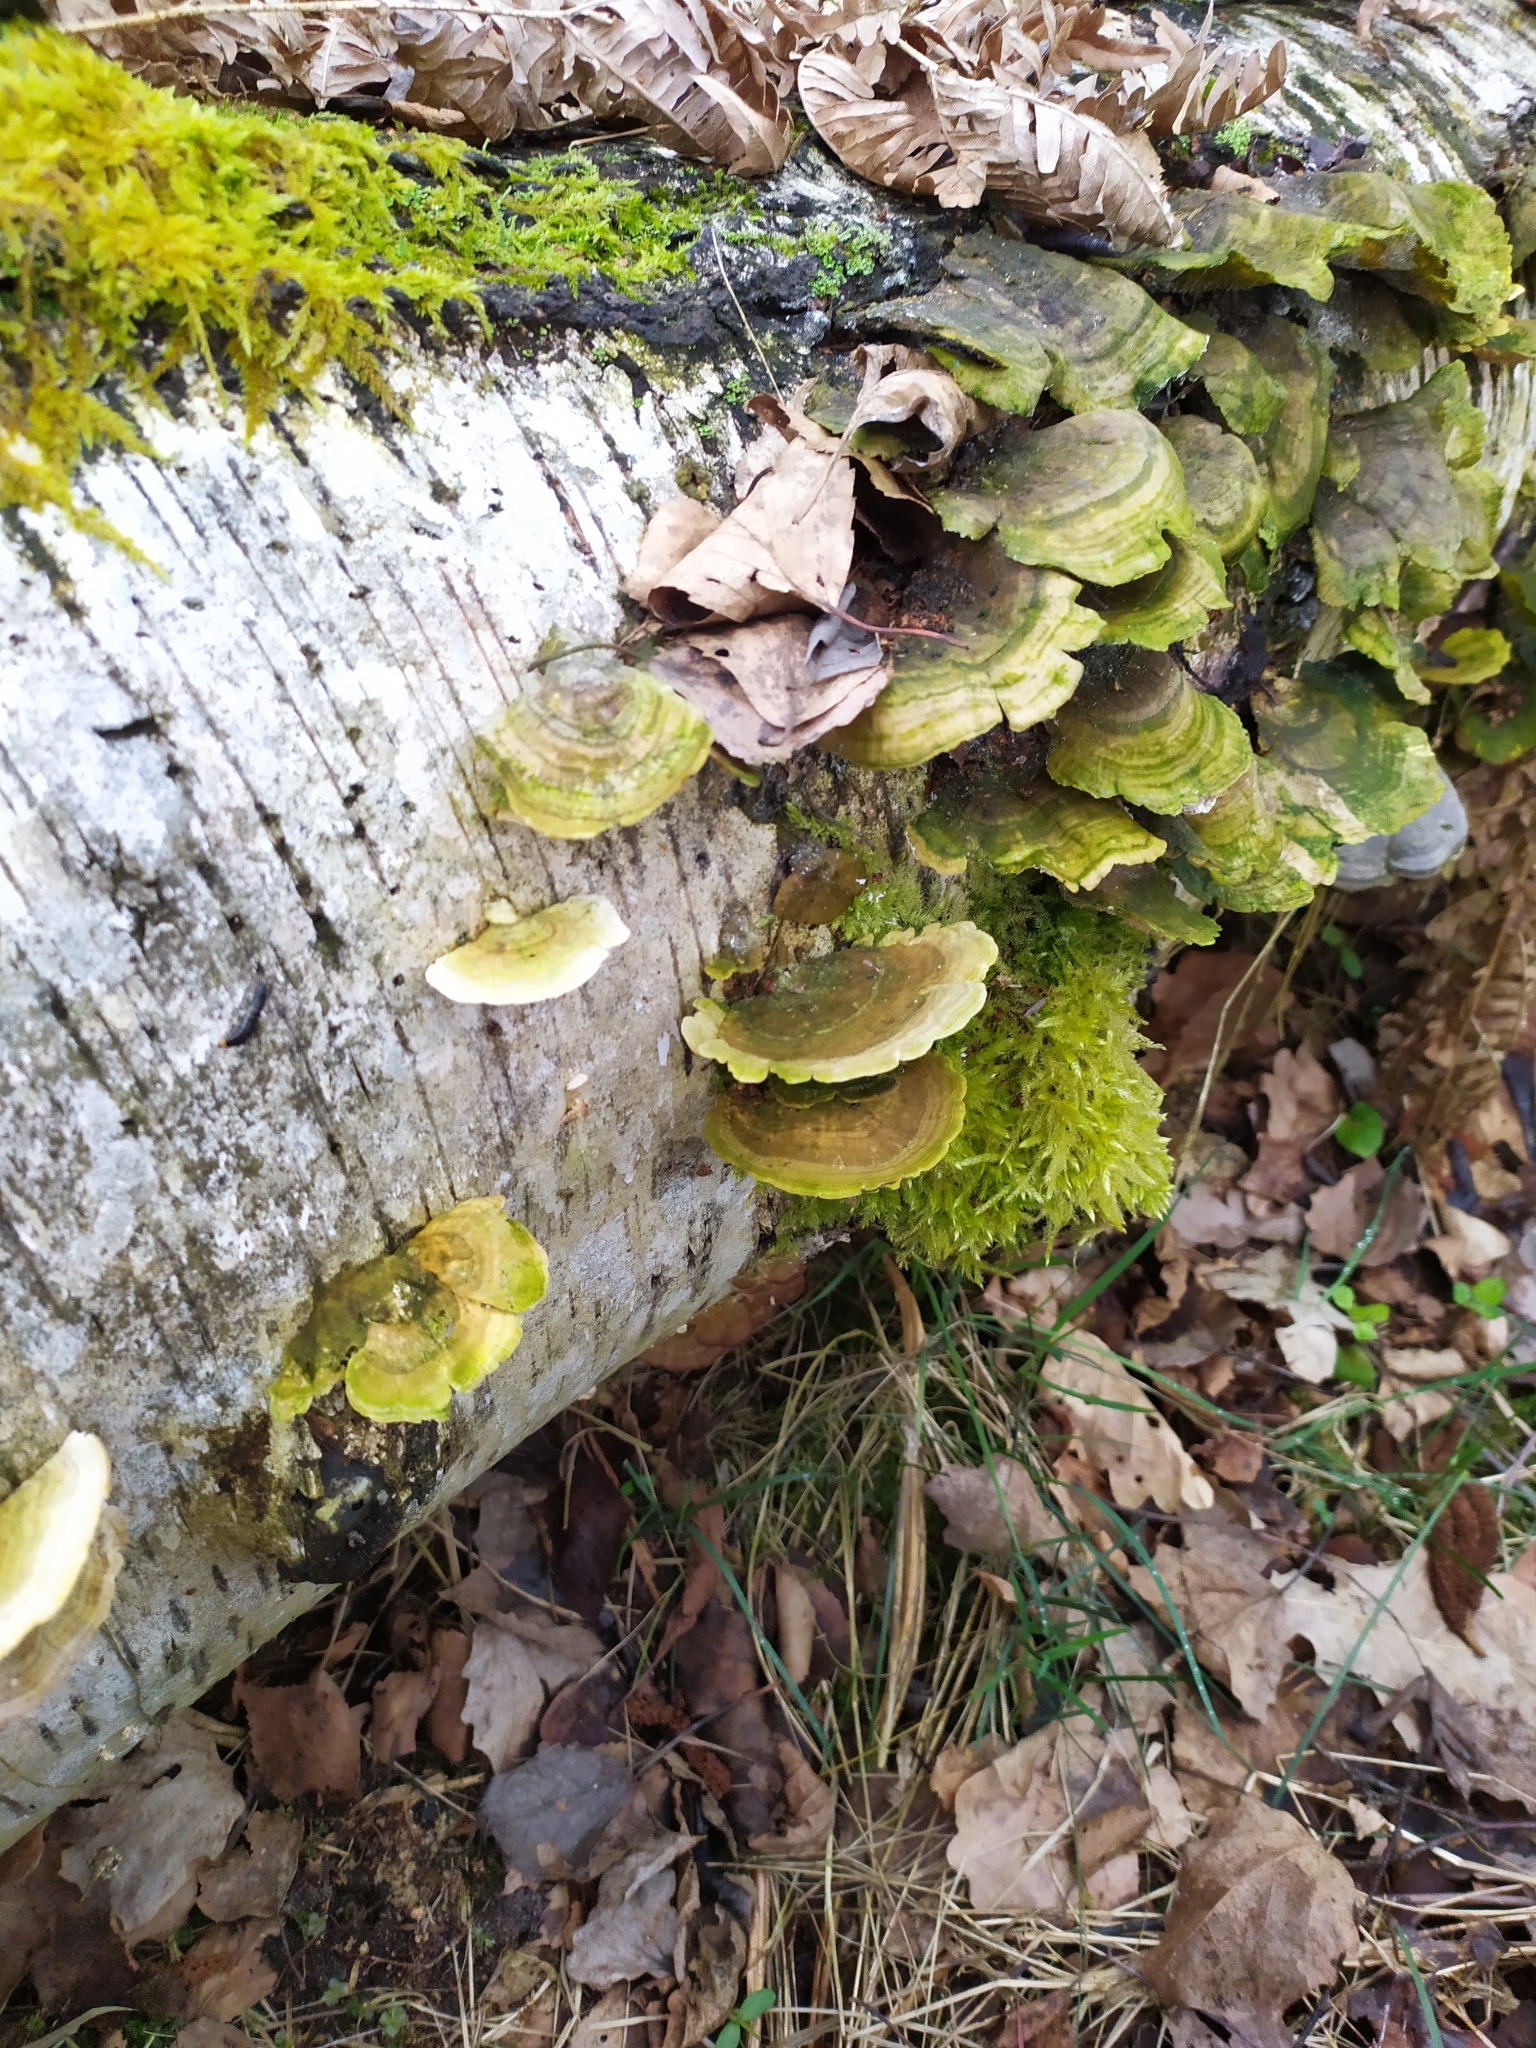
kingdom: Fungi
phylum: Basidiomycota
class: Agaricomycetes
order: Hymenochaetales
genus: Trichaptum
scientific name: Trichaptum biforme
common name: Violet-toothed polypore
